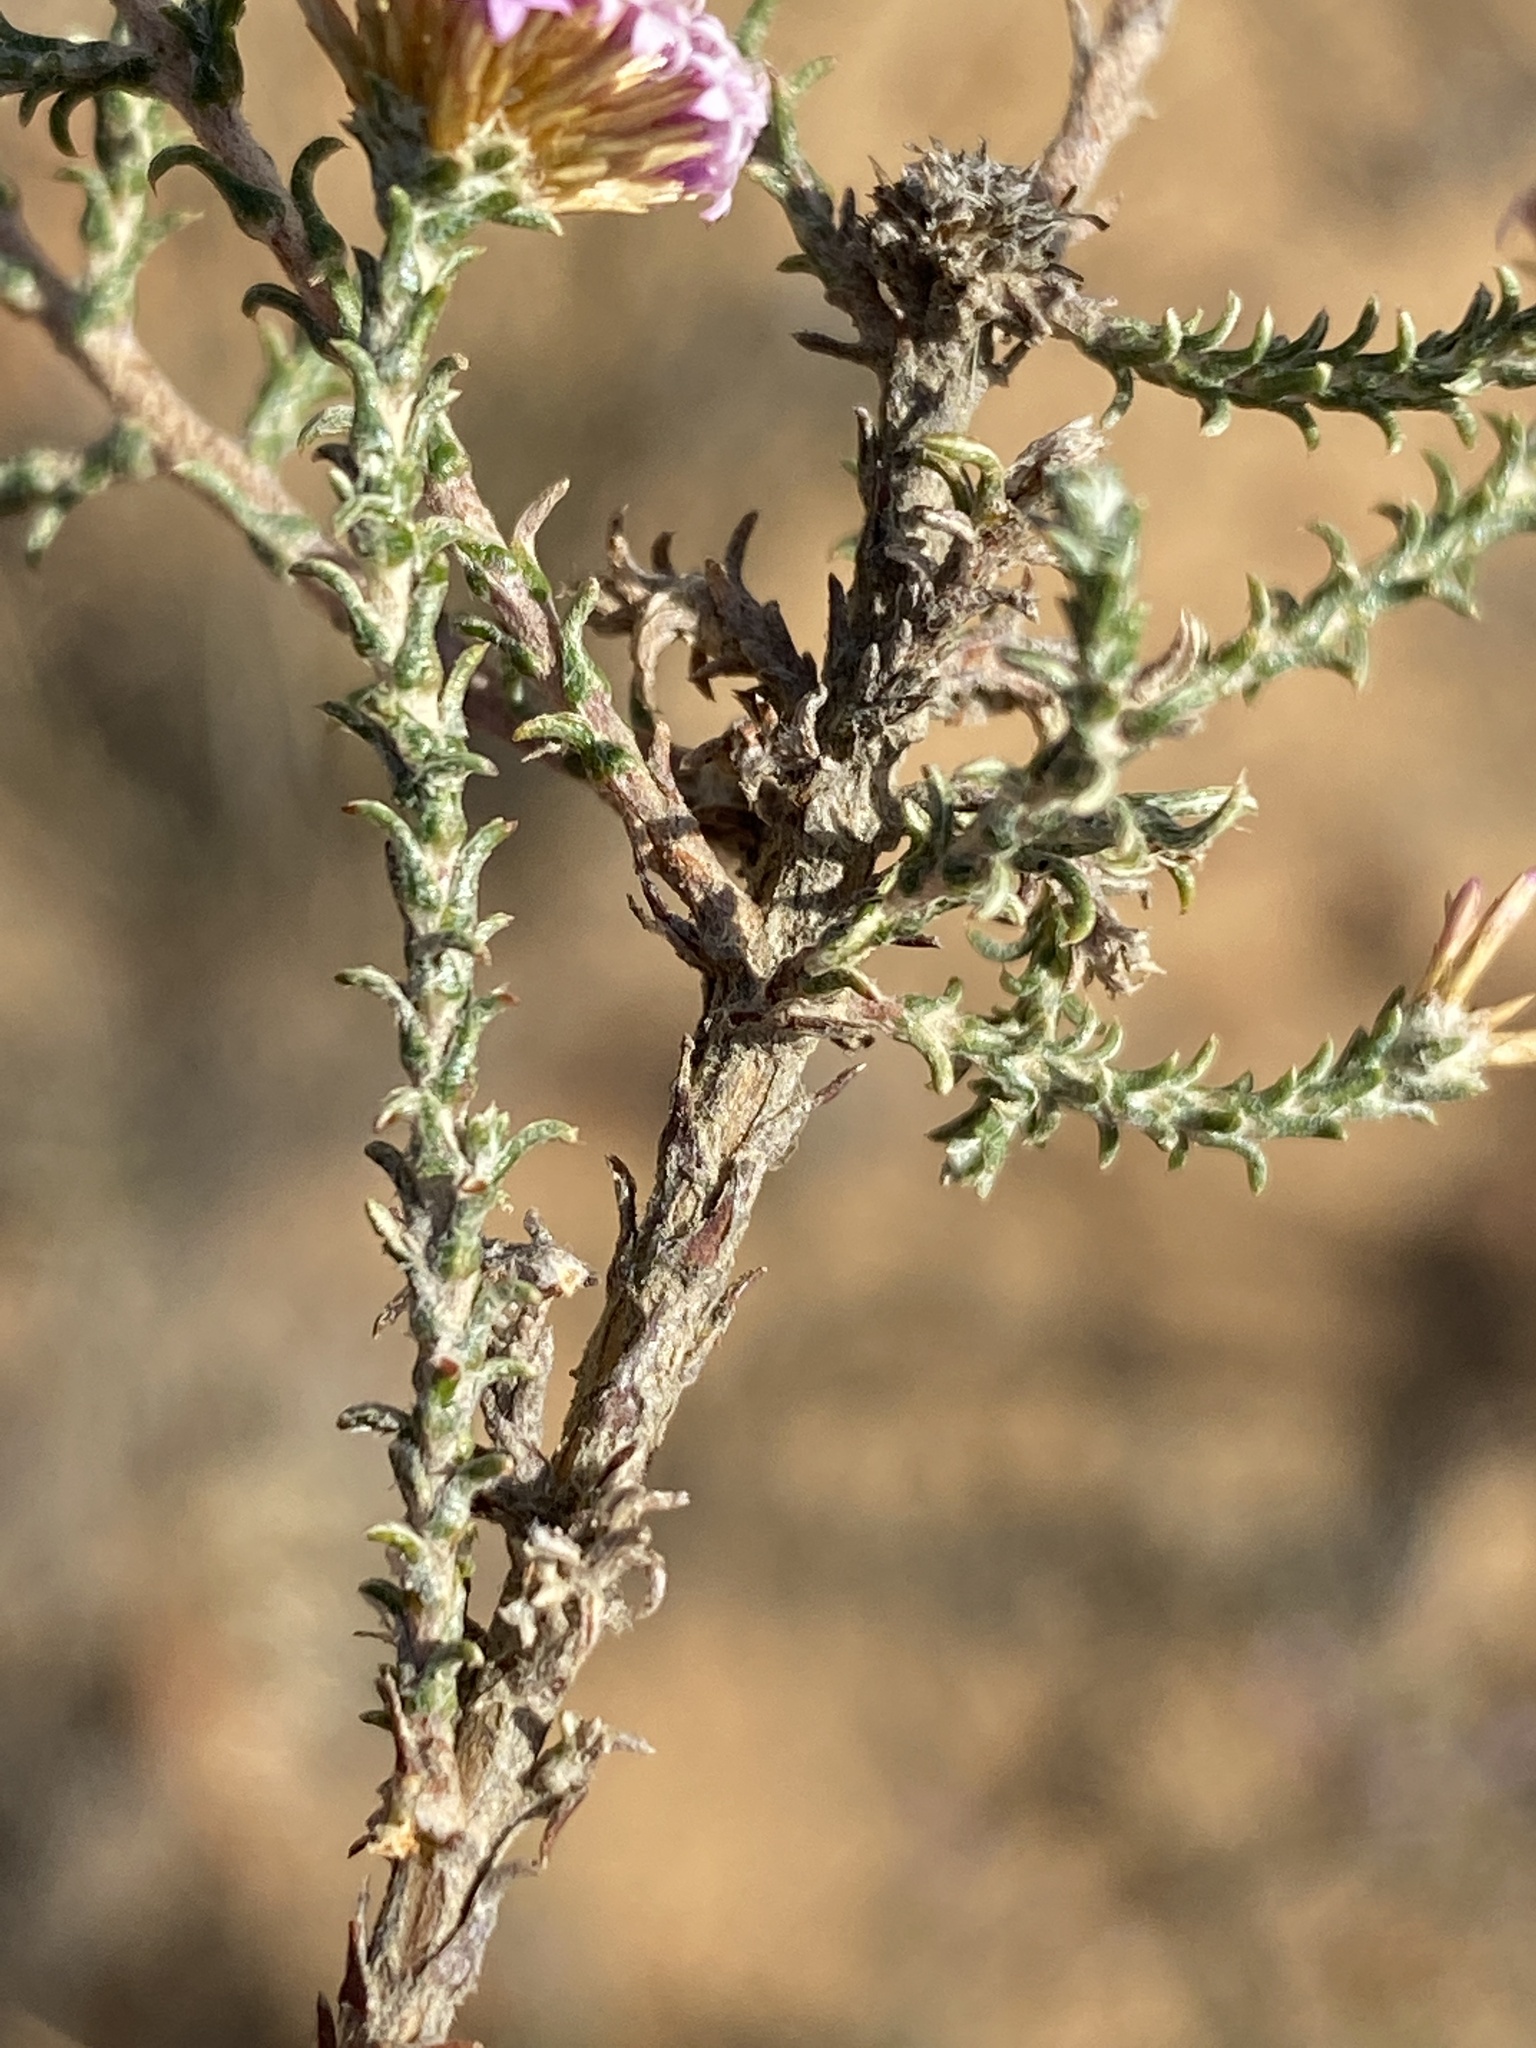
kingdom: Plantae
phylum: Tracheophyta
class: Magnoliopsida
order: Asterales
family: Asteraceae
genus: Stoebe
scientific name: Stoebe fusca
